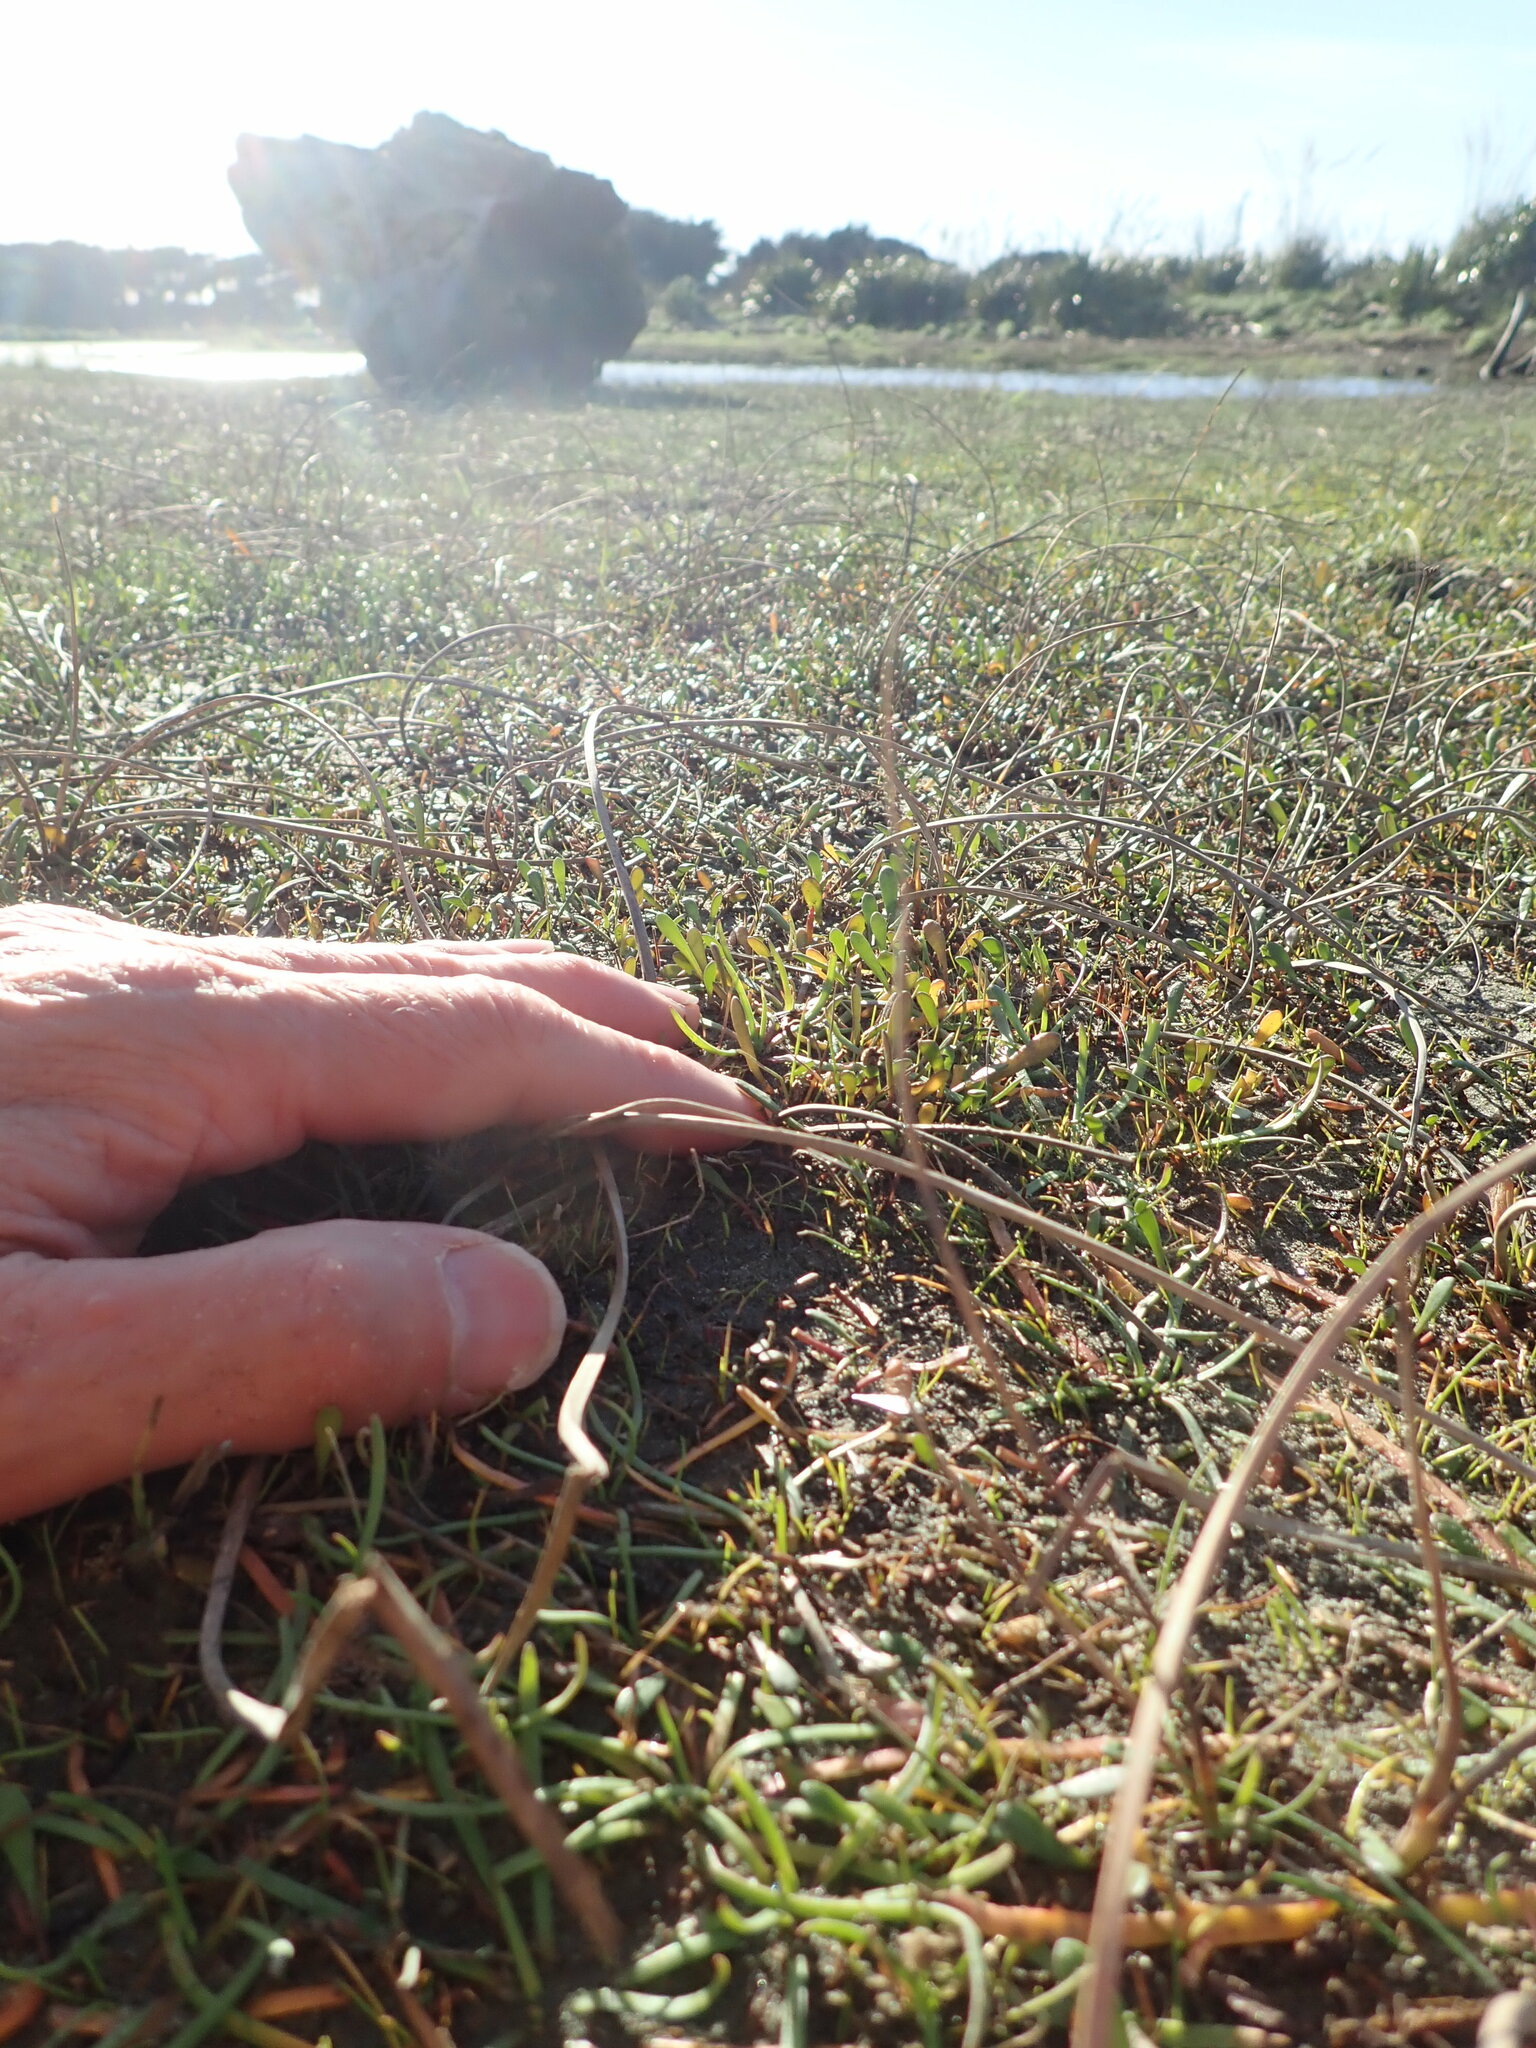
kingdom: Plantae
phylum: Tracheophyta
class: Magnoliopsida
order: Asterales
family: Goodeniaceae
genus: Goodenia
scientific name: Goodenia radicans
